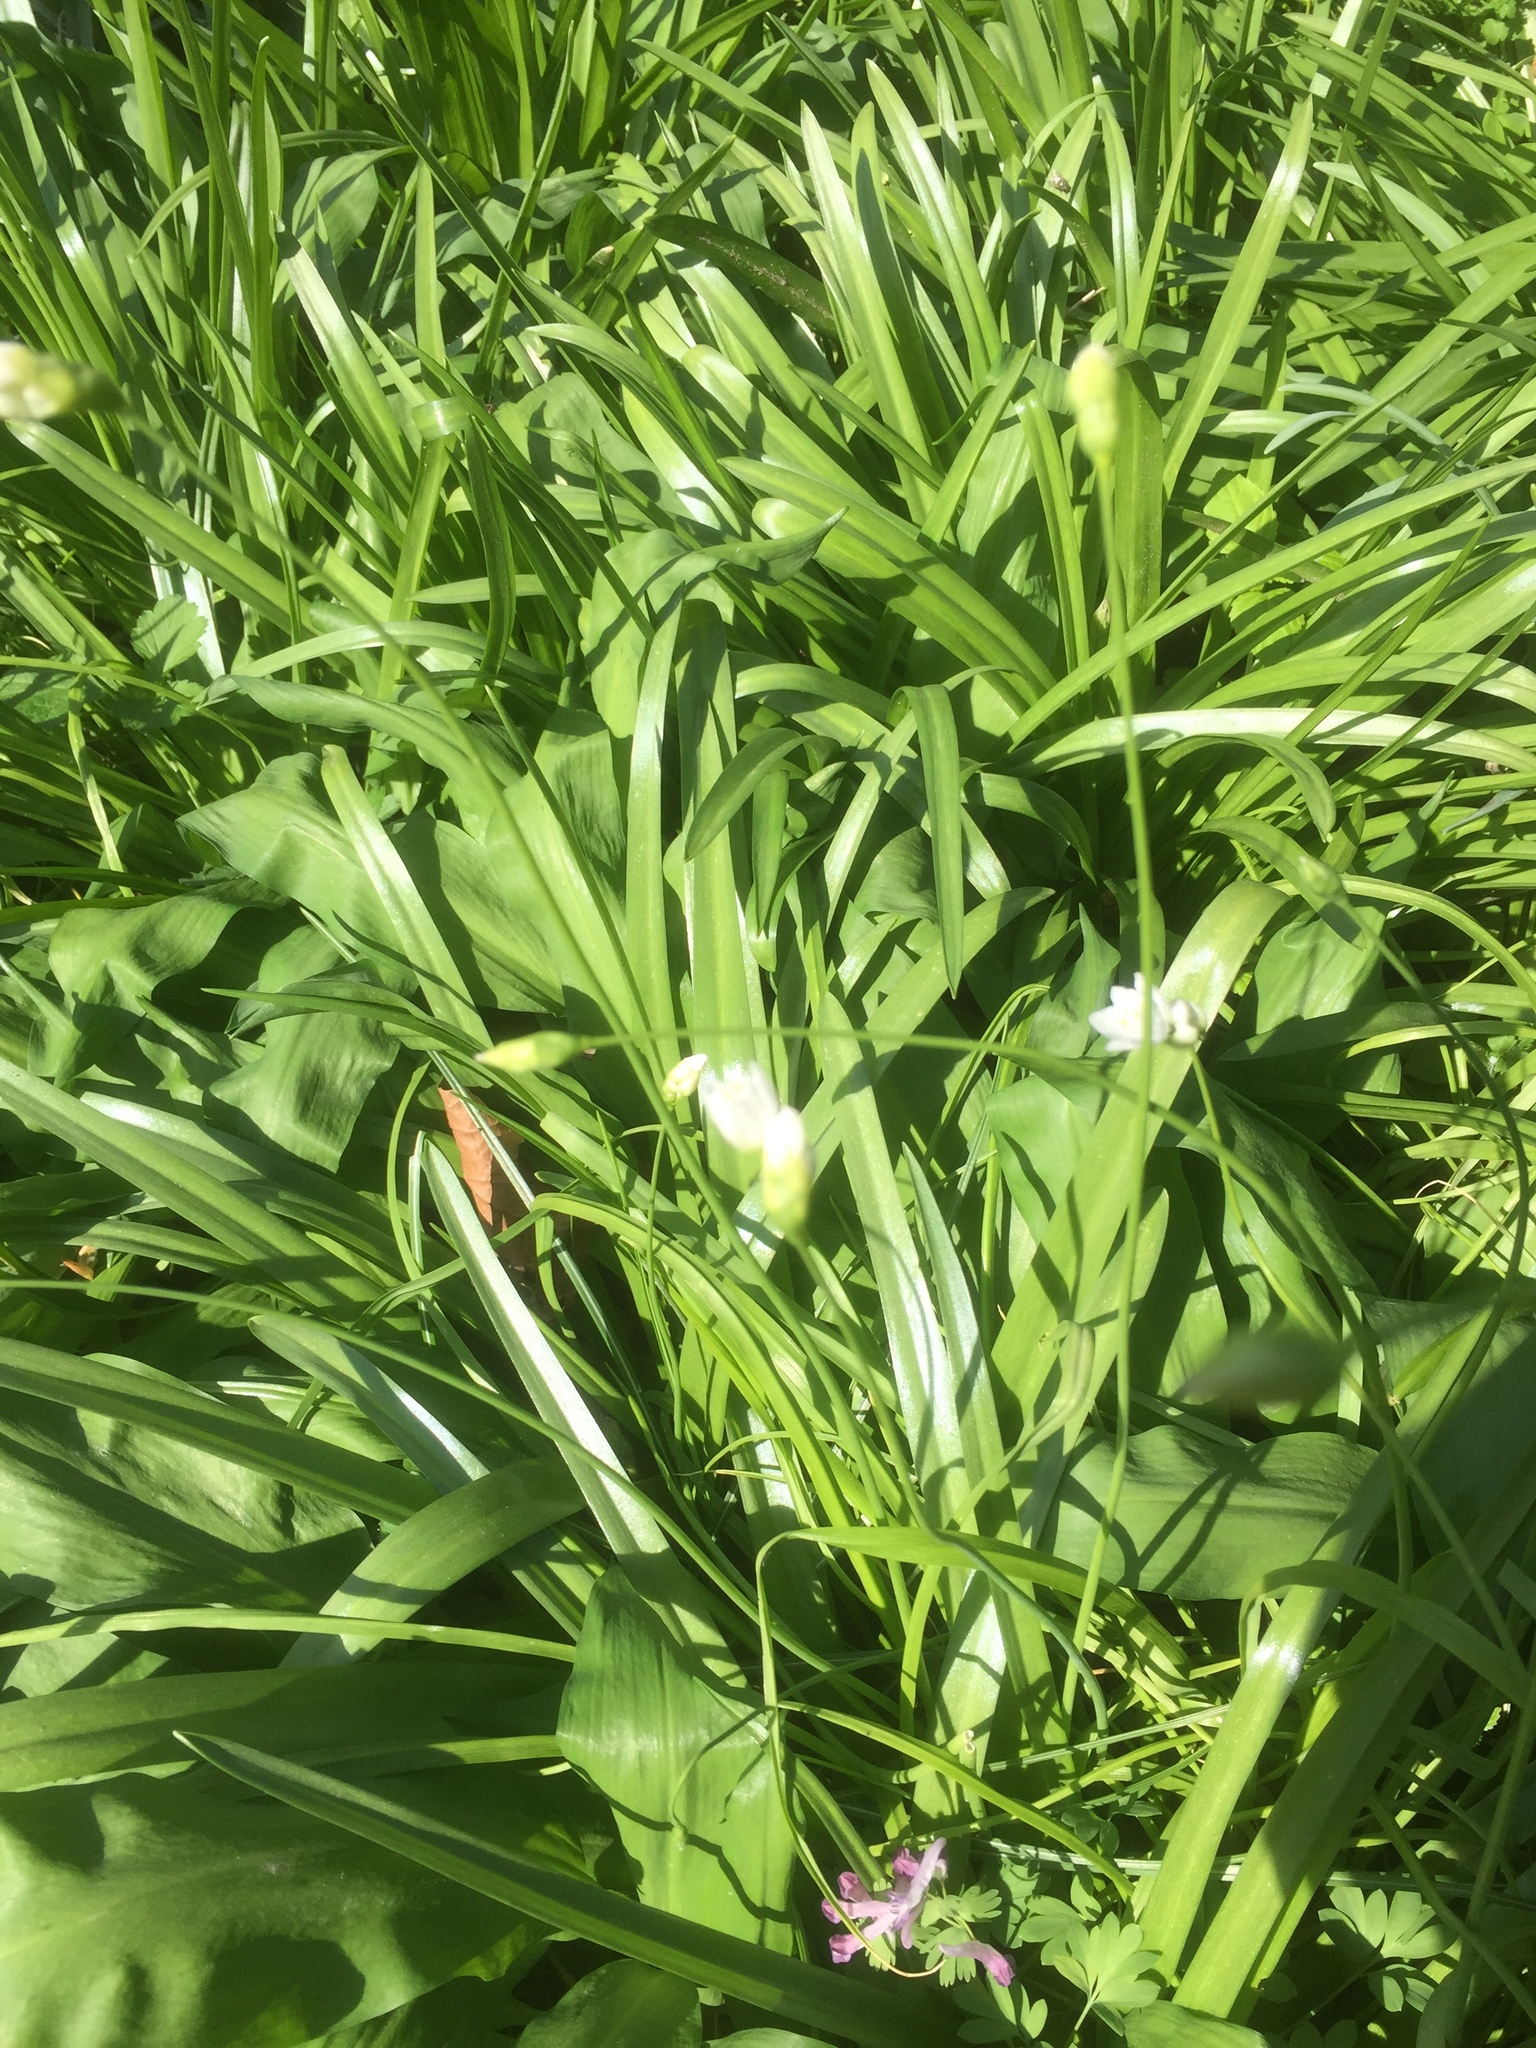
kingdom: Plantae
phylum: Tracheophyta
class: Liliopsida
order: Asparagales
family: Amaryllidaceae
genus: Allium
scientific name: Allium ursinum
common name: Ramsons
